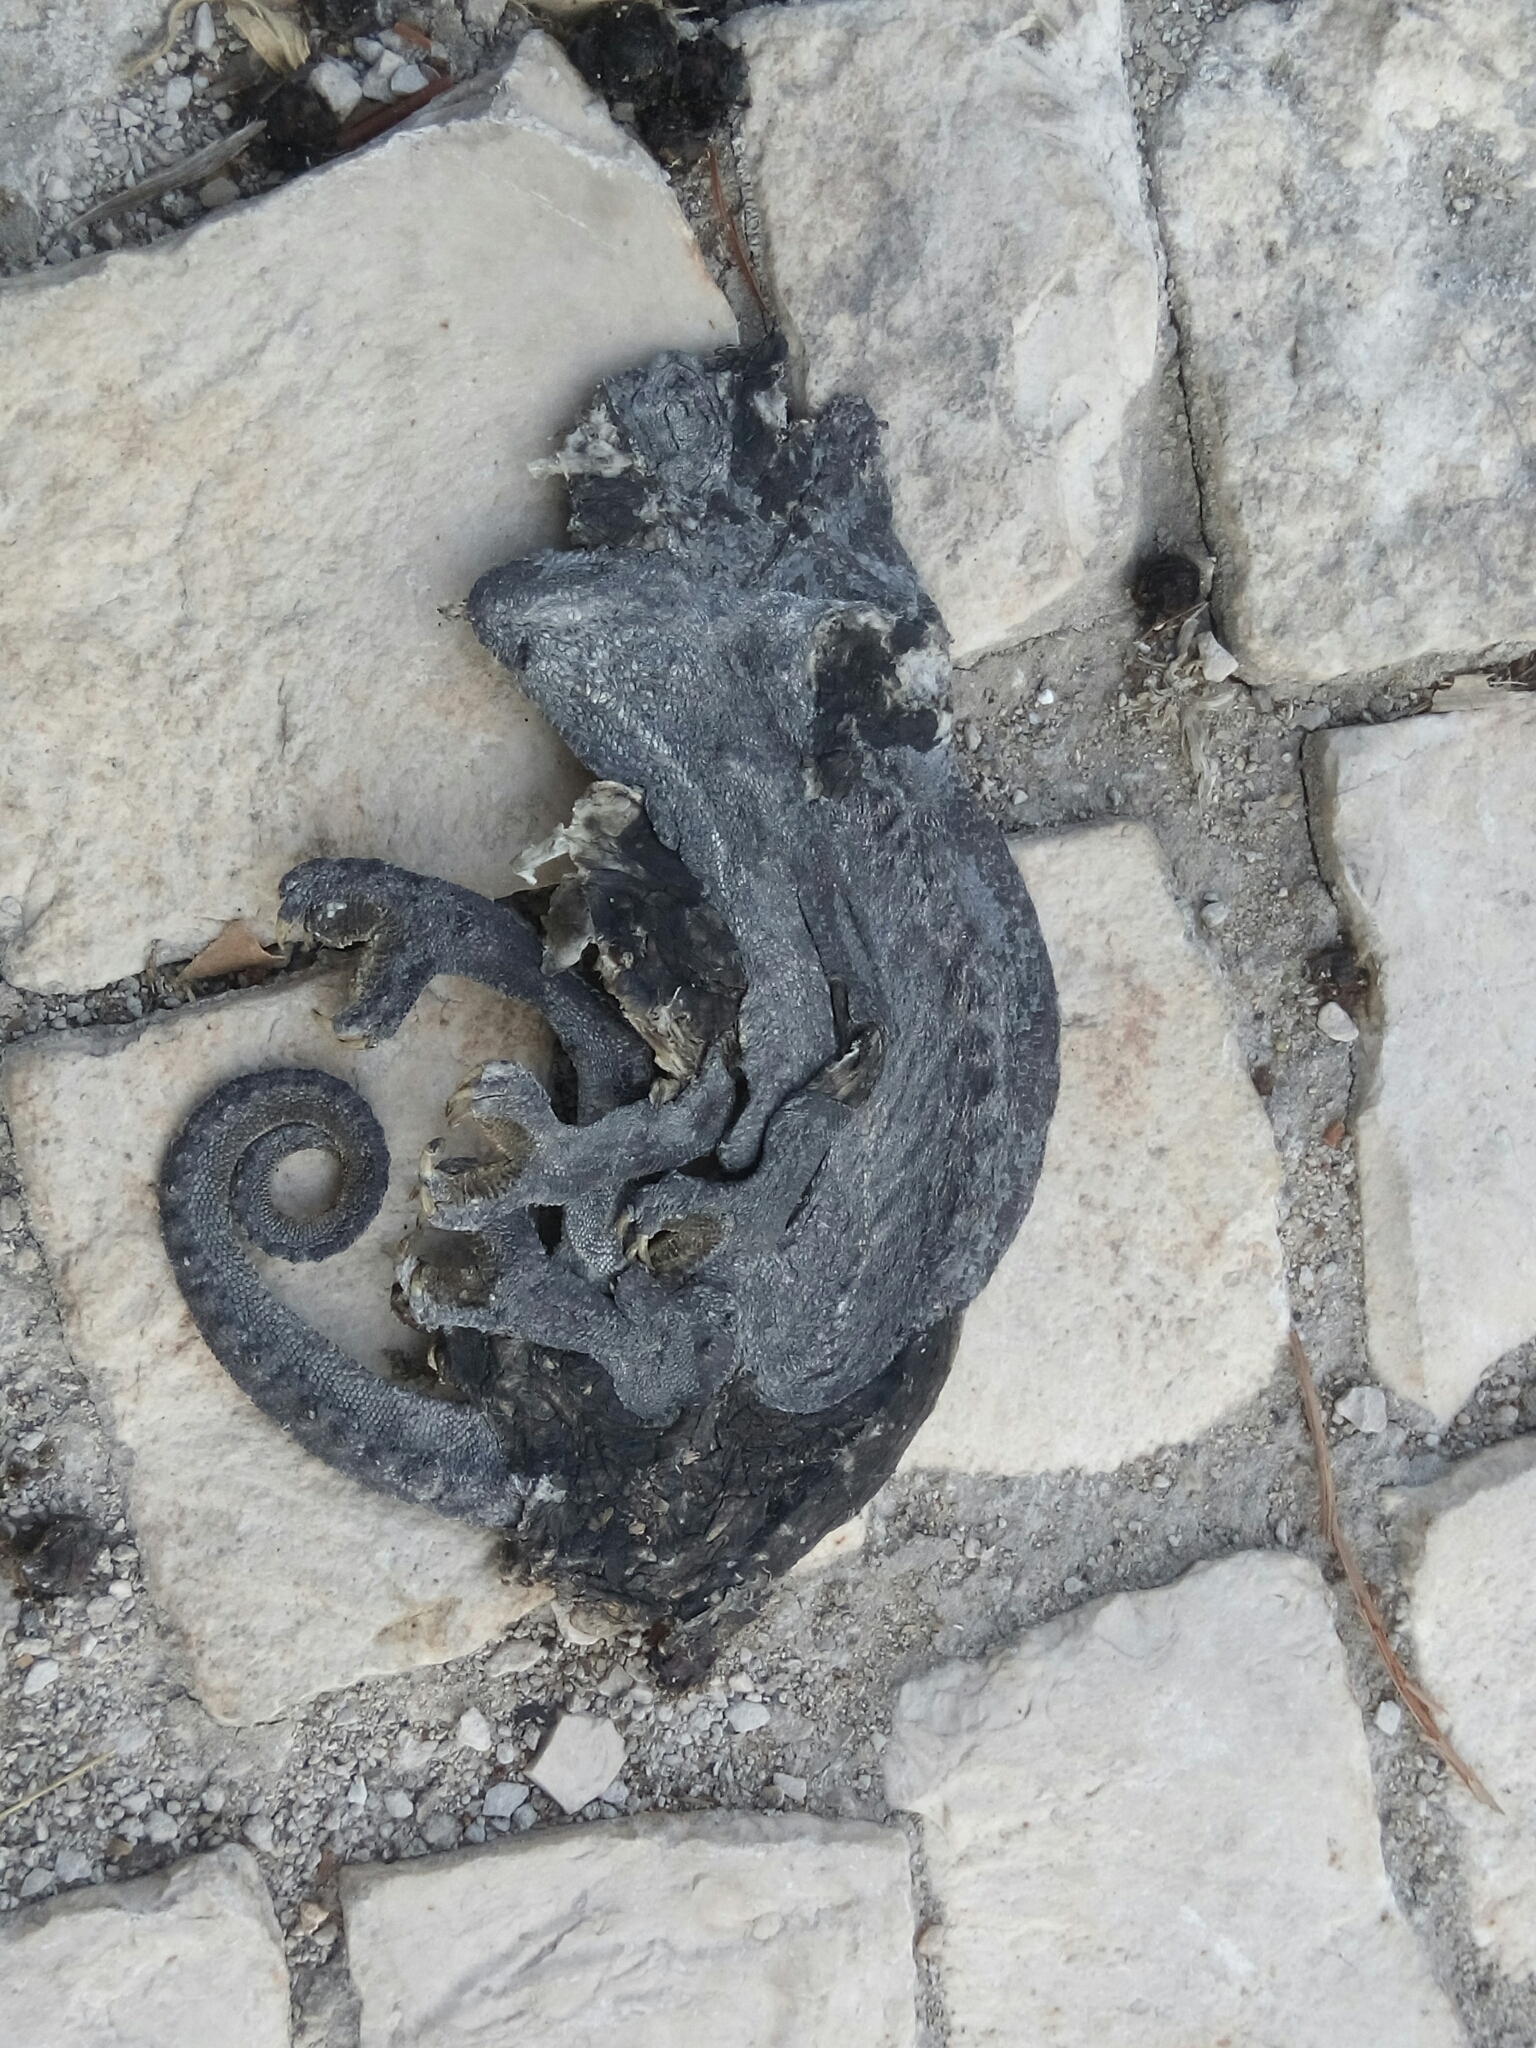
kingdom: Animalia
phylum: Chordata
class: Squamata
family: Chamaeleonidae
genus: Chamaeleo
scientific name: Chamaeleo chamaeleon
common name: Mediterranean chameleon
